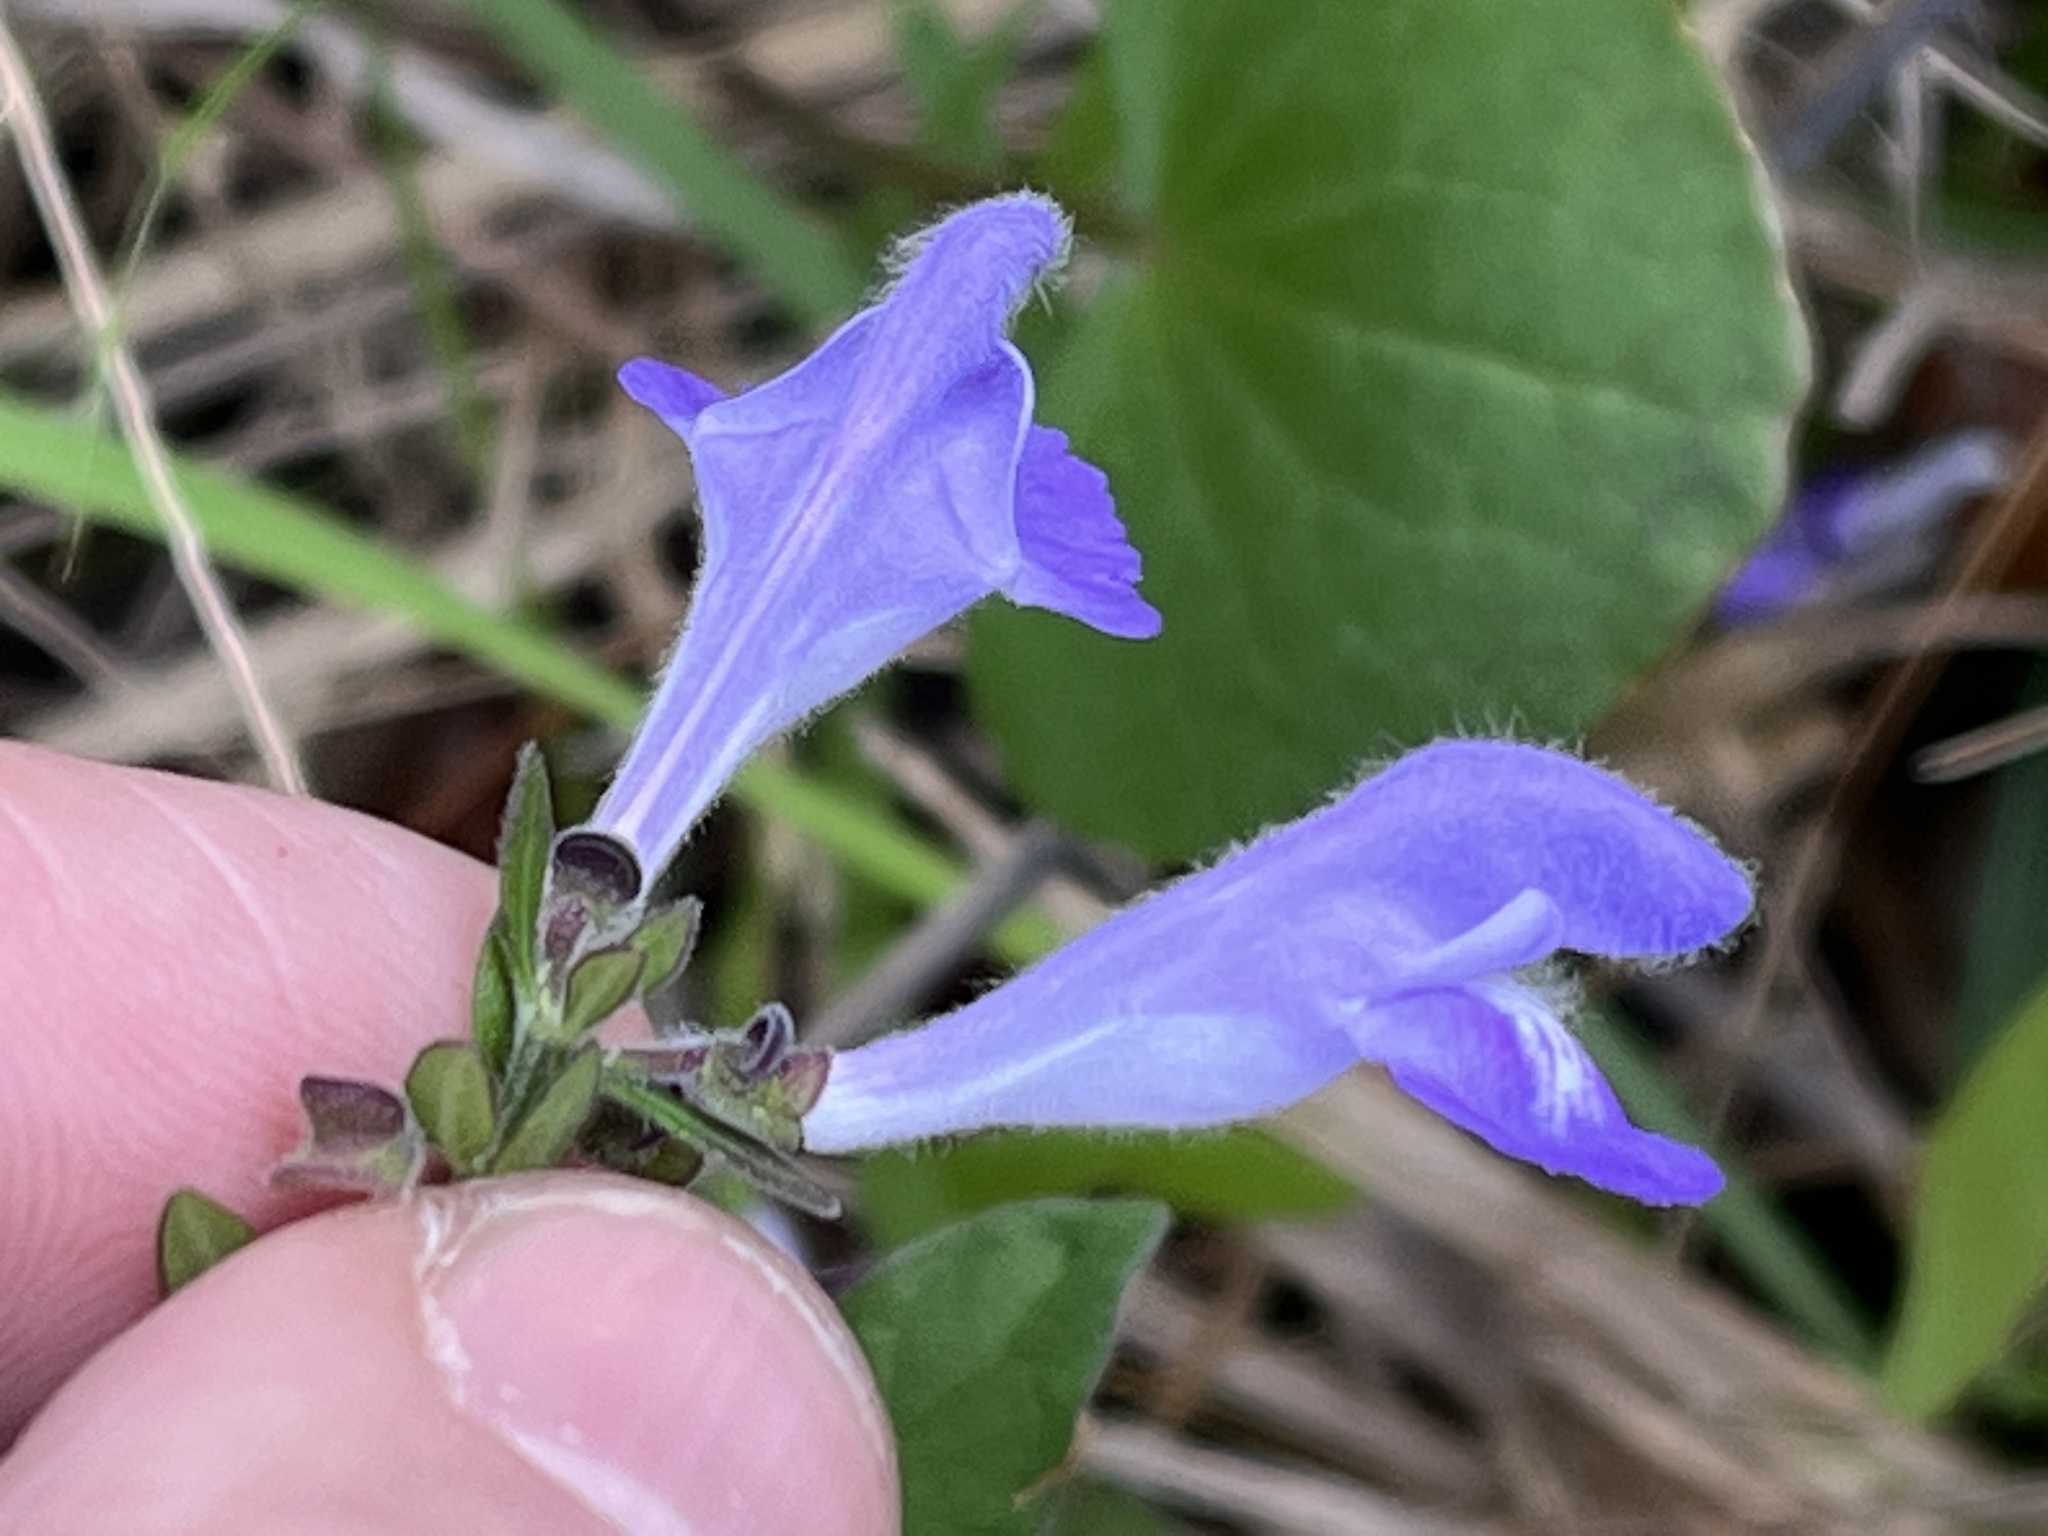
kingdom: Plantae
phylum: Tracheophyta
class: Magnoliopsida
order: Lamiales
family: Lamiaceae
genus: Scutellaria
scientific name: Scutellaria integrifolia
